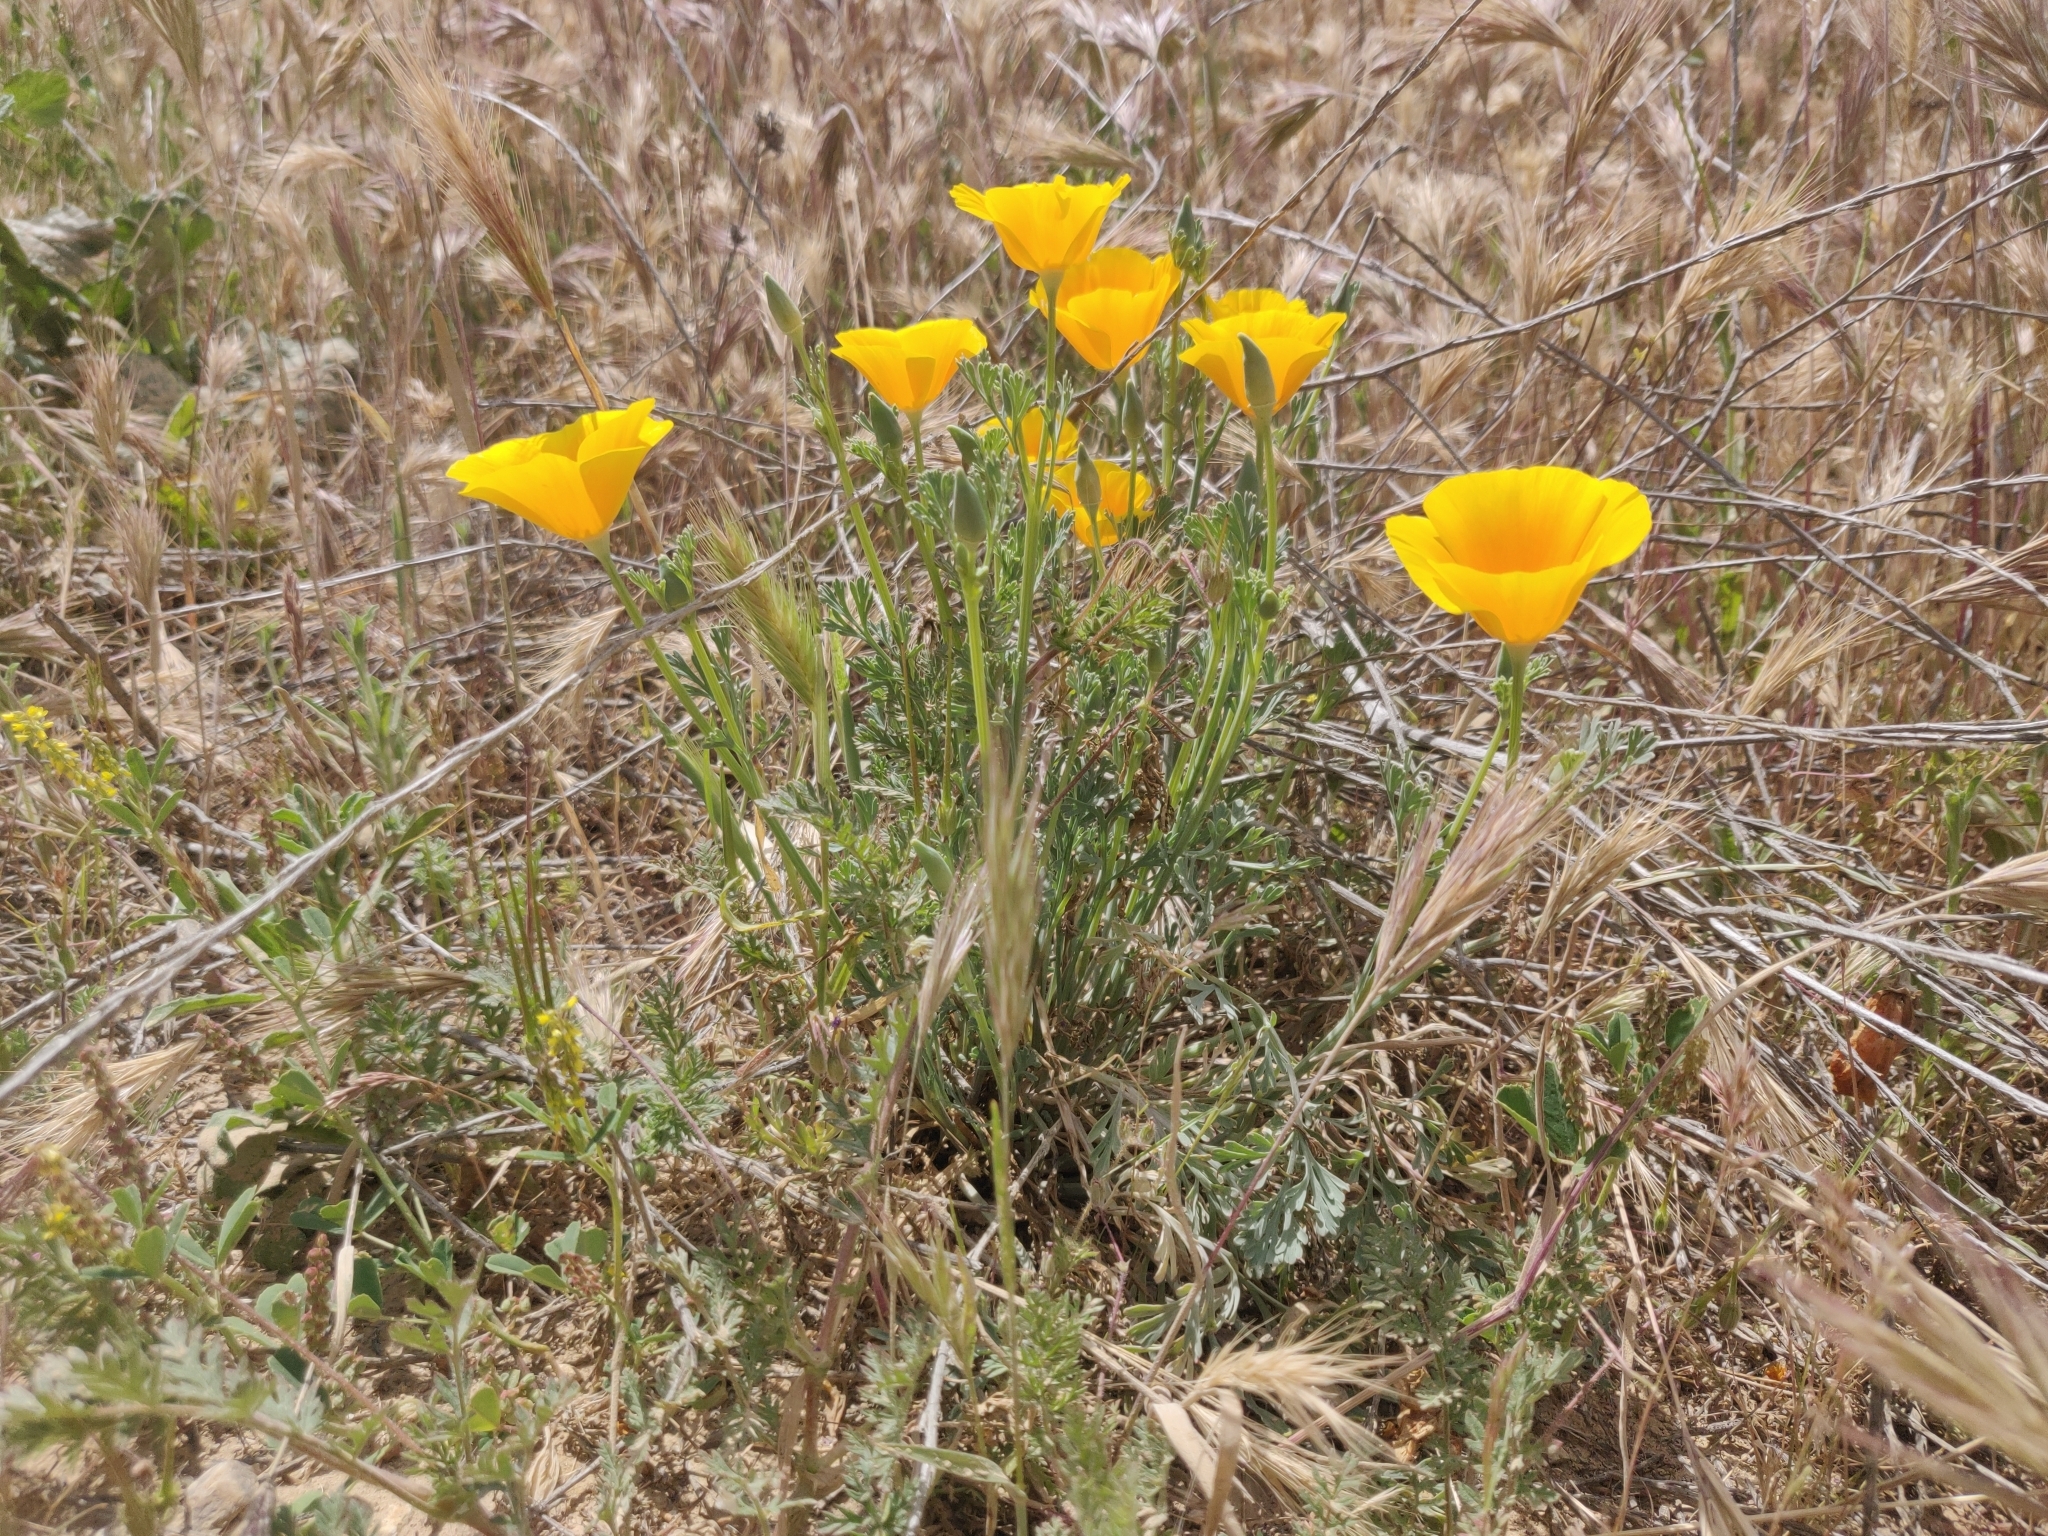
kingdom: Plantae
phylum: Tracheophyta
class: Magnoliopsida
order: Ranunculales
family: Papaveraceae
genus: Eschscholzia
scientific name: Eschscholzia californica
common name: California poppy
